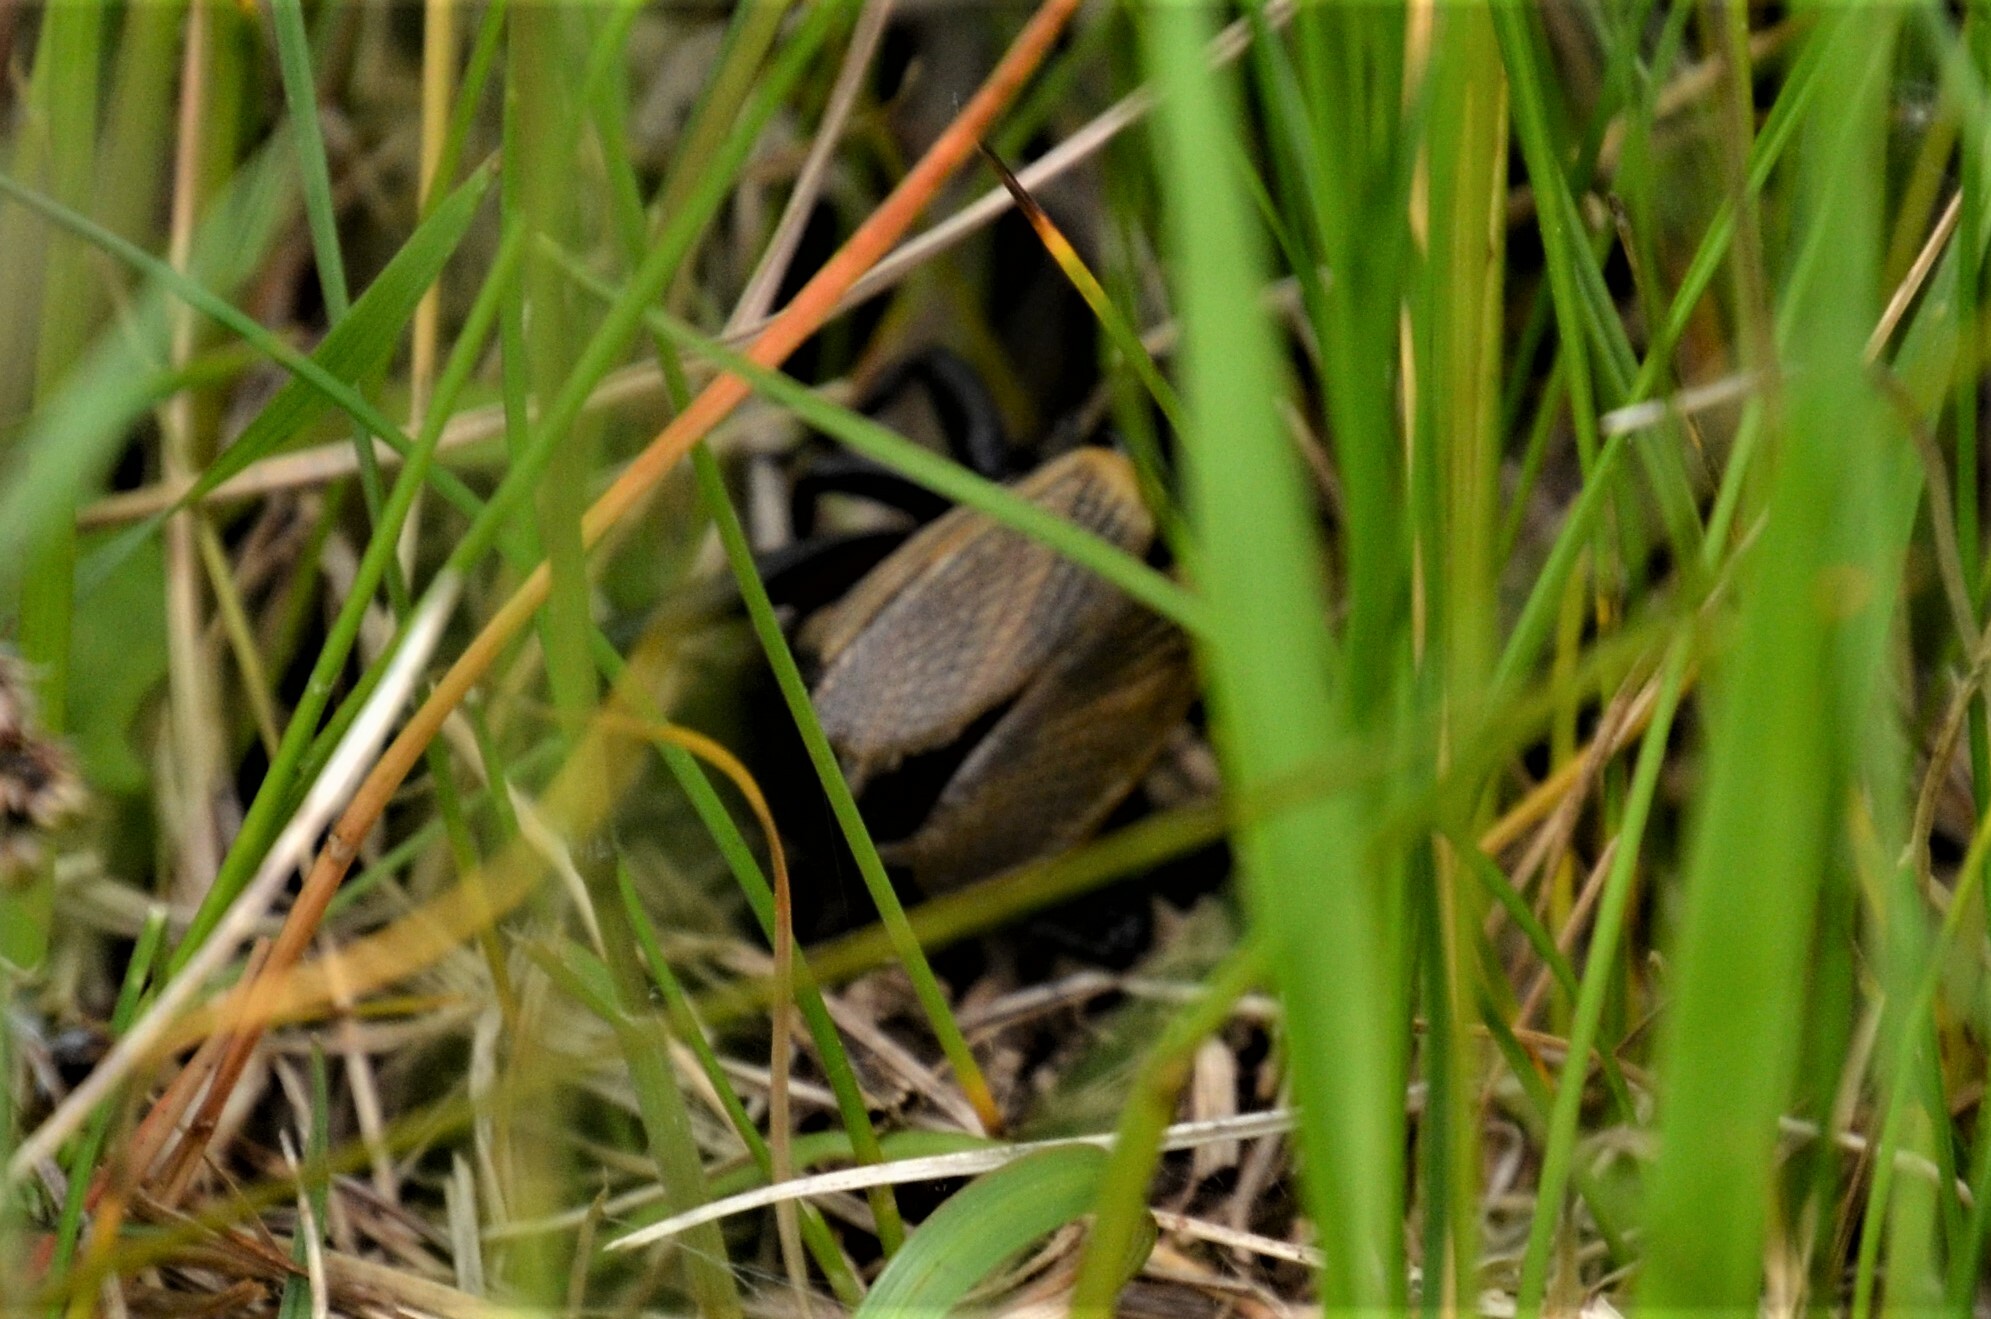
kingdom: Animalia
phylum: Arthropoda
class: Insecta
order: Orthoptera
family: Gryllidae
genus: Gryllus
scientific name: Gryllus campestris
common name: Field cricket
